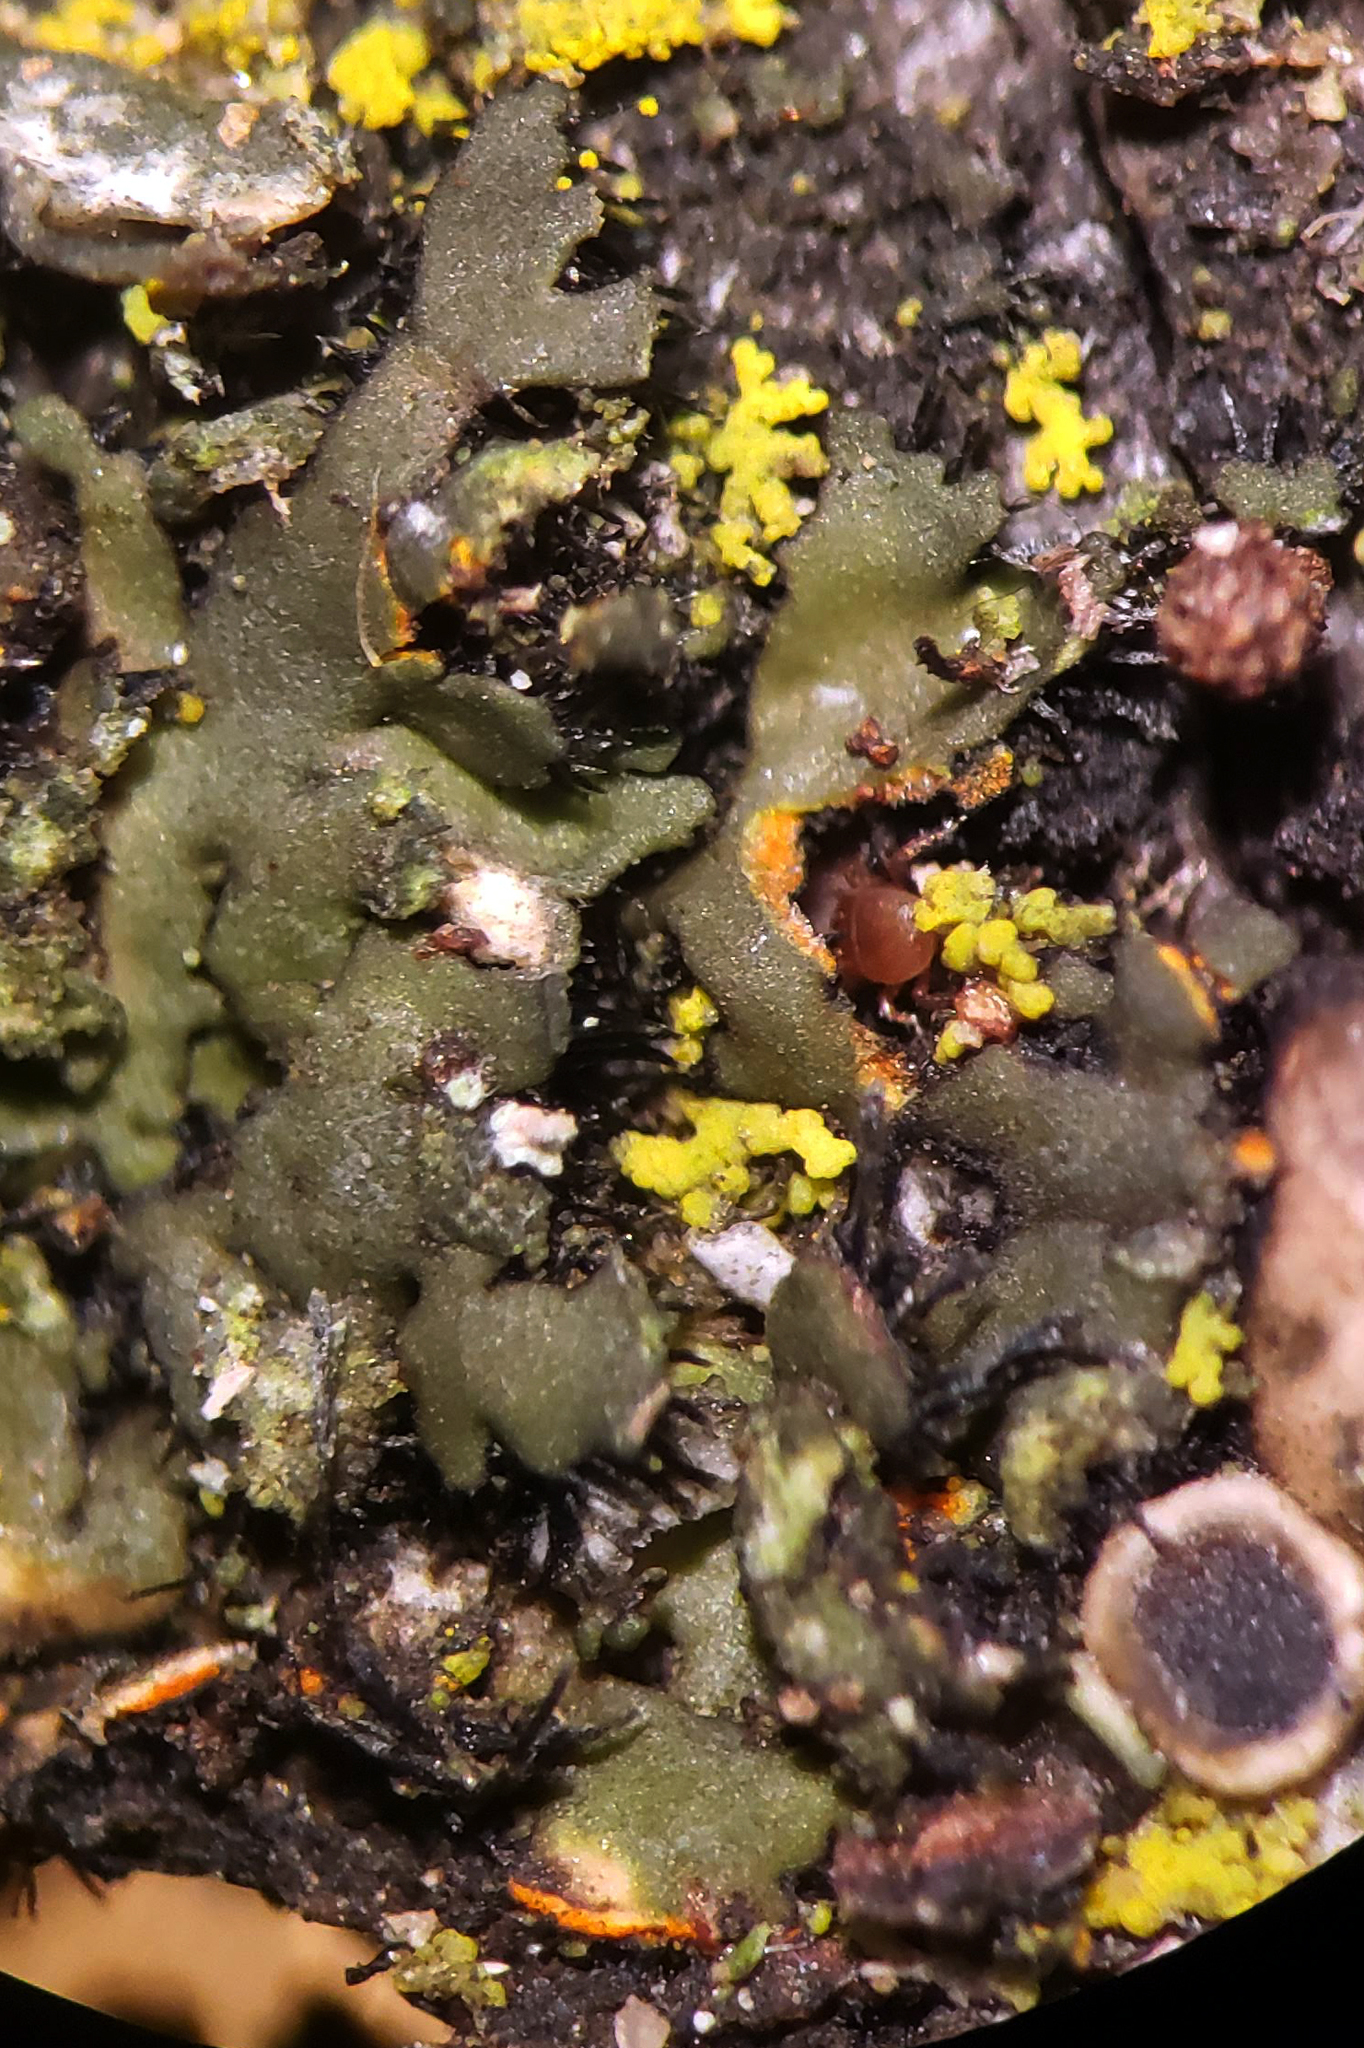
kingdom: Fungi
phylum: Ascomycota
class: Lecanoromycetes
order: Caliciales
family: Physciaceae
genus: Phaeophyscia
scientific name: Phaeophyscia rubropulchra
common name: Orange-cored shadow lichen
